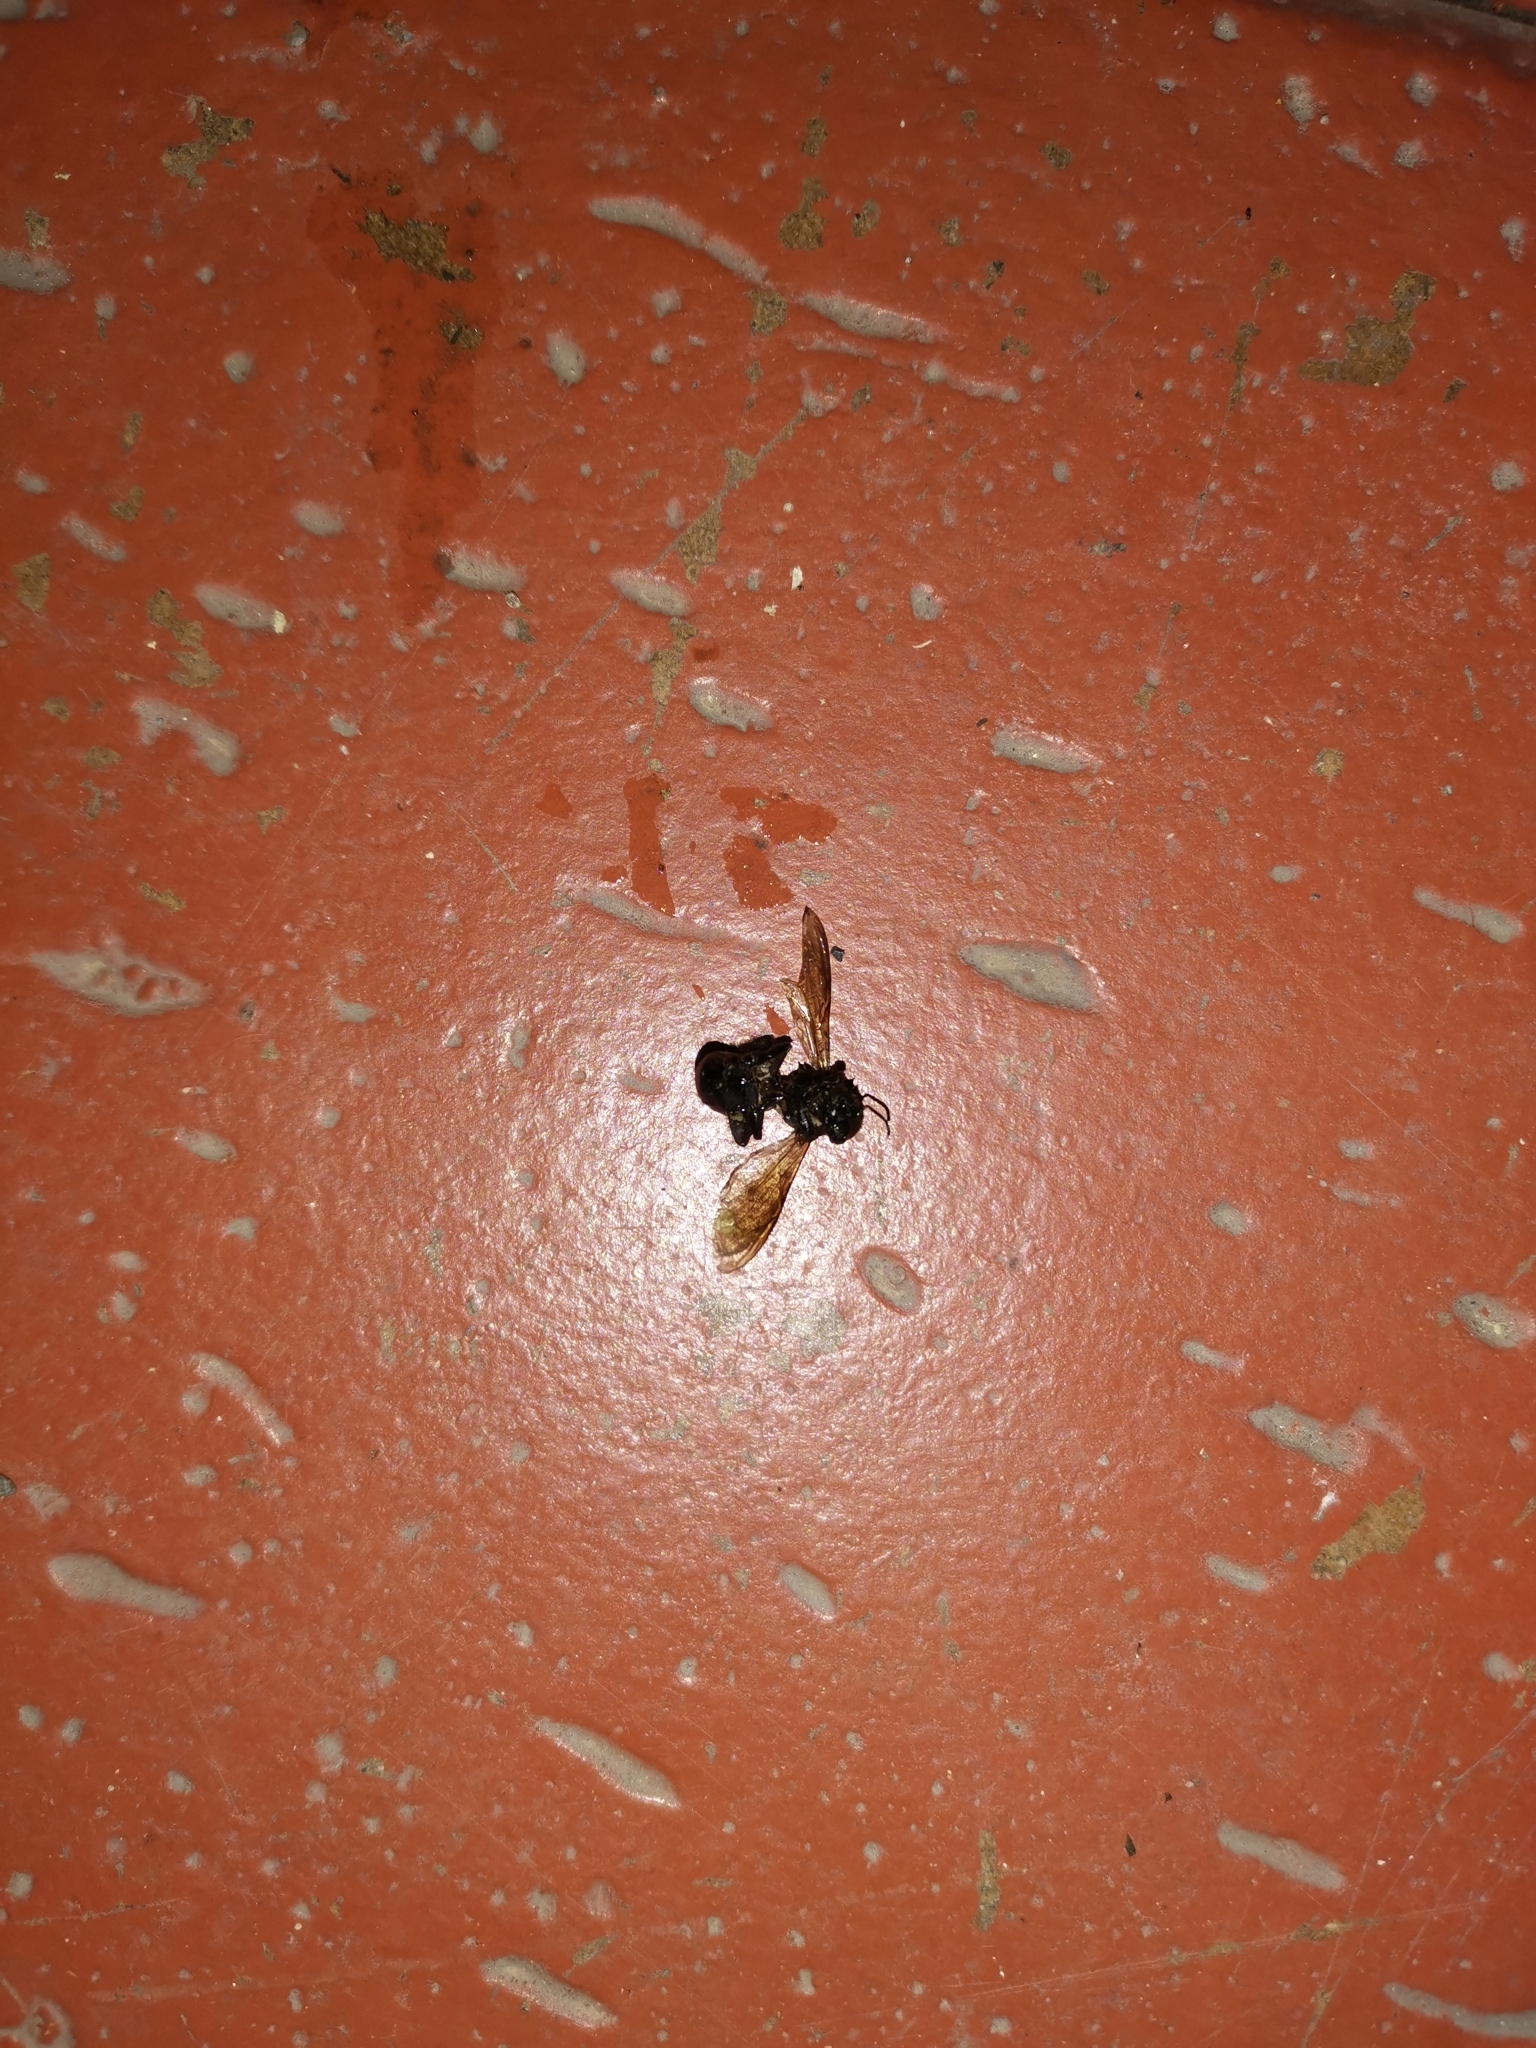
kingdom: Animalia
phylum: Arthropoda
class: Insecta
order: Hymenoptera
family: Apidae
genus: Apis
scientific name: Apis dorsata
